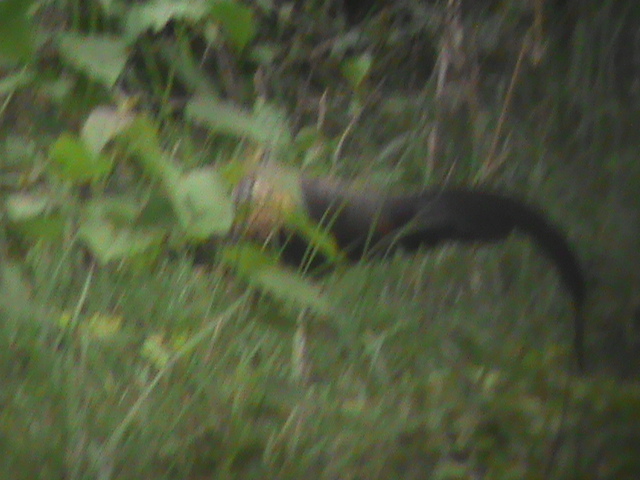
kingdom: Animalia
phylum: Chordata
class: Aves
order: Galliformes
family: Phasianidae
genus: Gallus
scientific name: Gallus sonneratii
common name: Grey junglefowl
